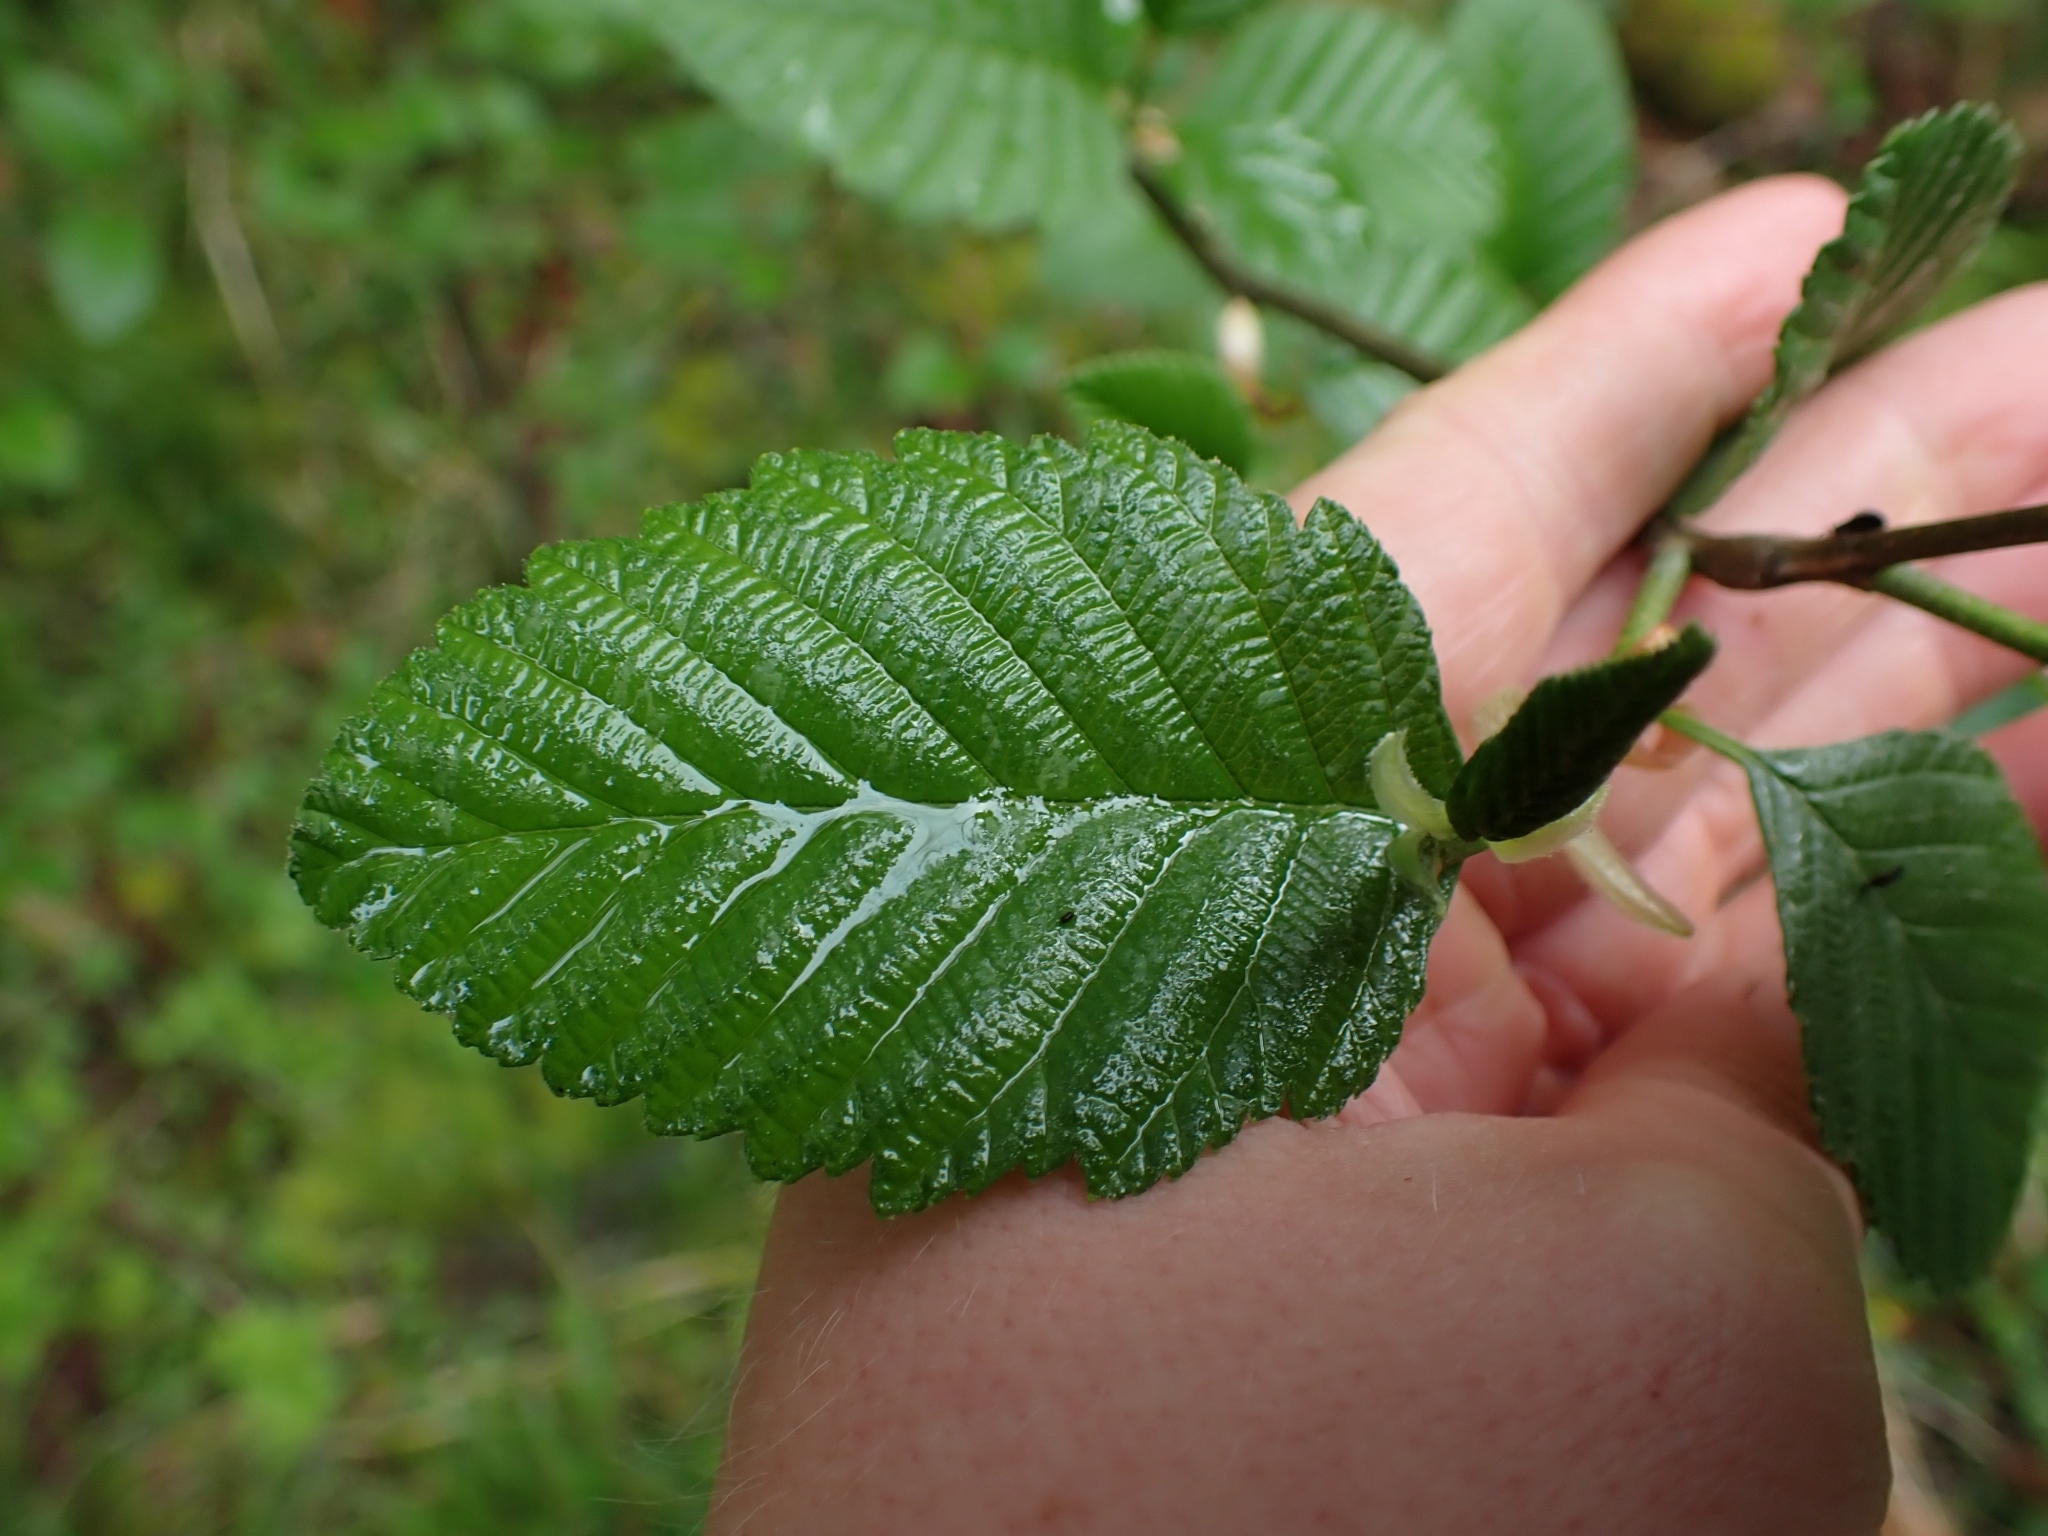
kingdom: Plantae
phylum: Tracheophyta
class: Magnoliopsida
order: Fagales
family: Betulaceae
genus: Alnus
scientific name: Alnus rubra
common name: Red alder
